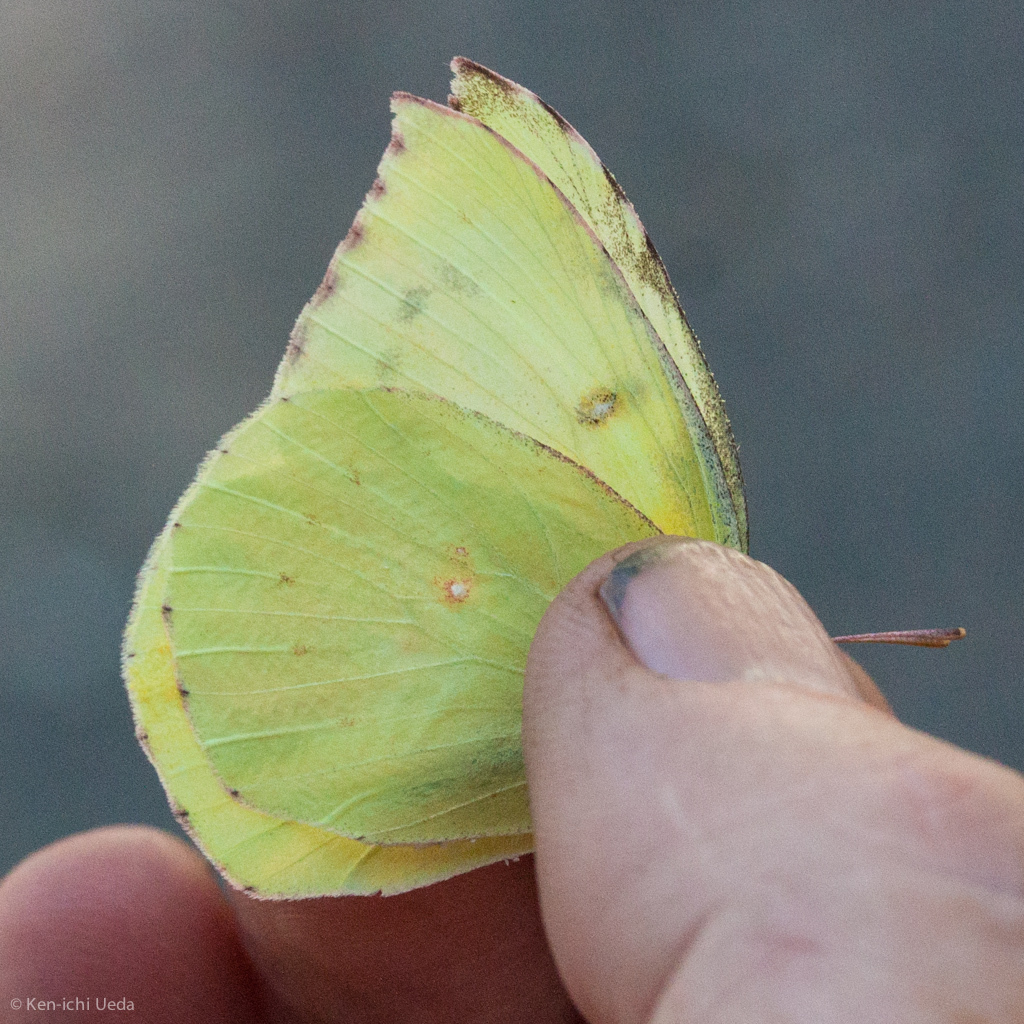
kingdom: Animalia
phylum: Arthropoda
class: Insecta
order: Lepidoptera
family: Pieridae
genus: Zerene
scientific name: Zerene eurydice
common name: California dogface
